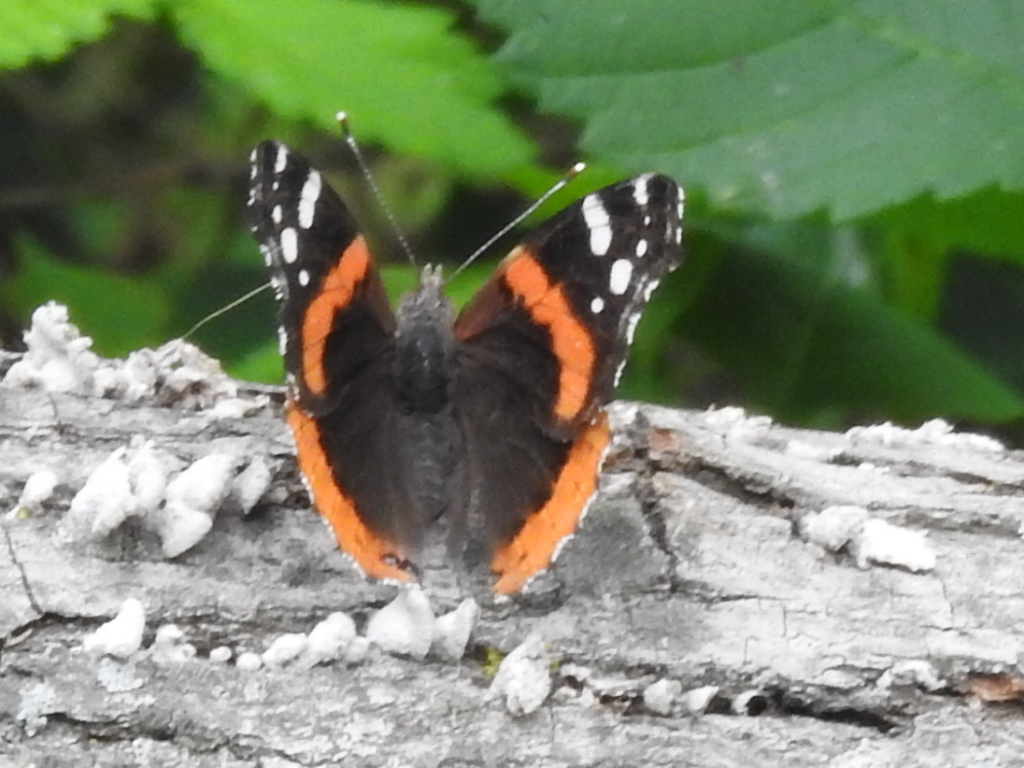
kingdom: Animalia
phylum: Arthropoda
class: Insecta
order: Lepidoptera
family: Nymphalidae
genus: Vanessa
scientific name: Vanessa atalanta
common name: Red admiral
